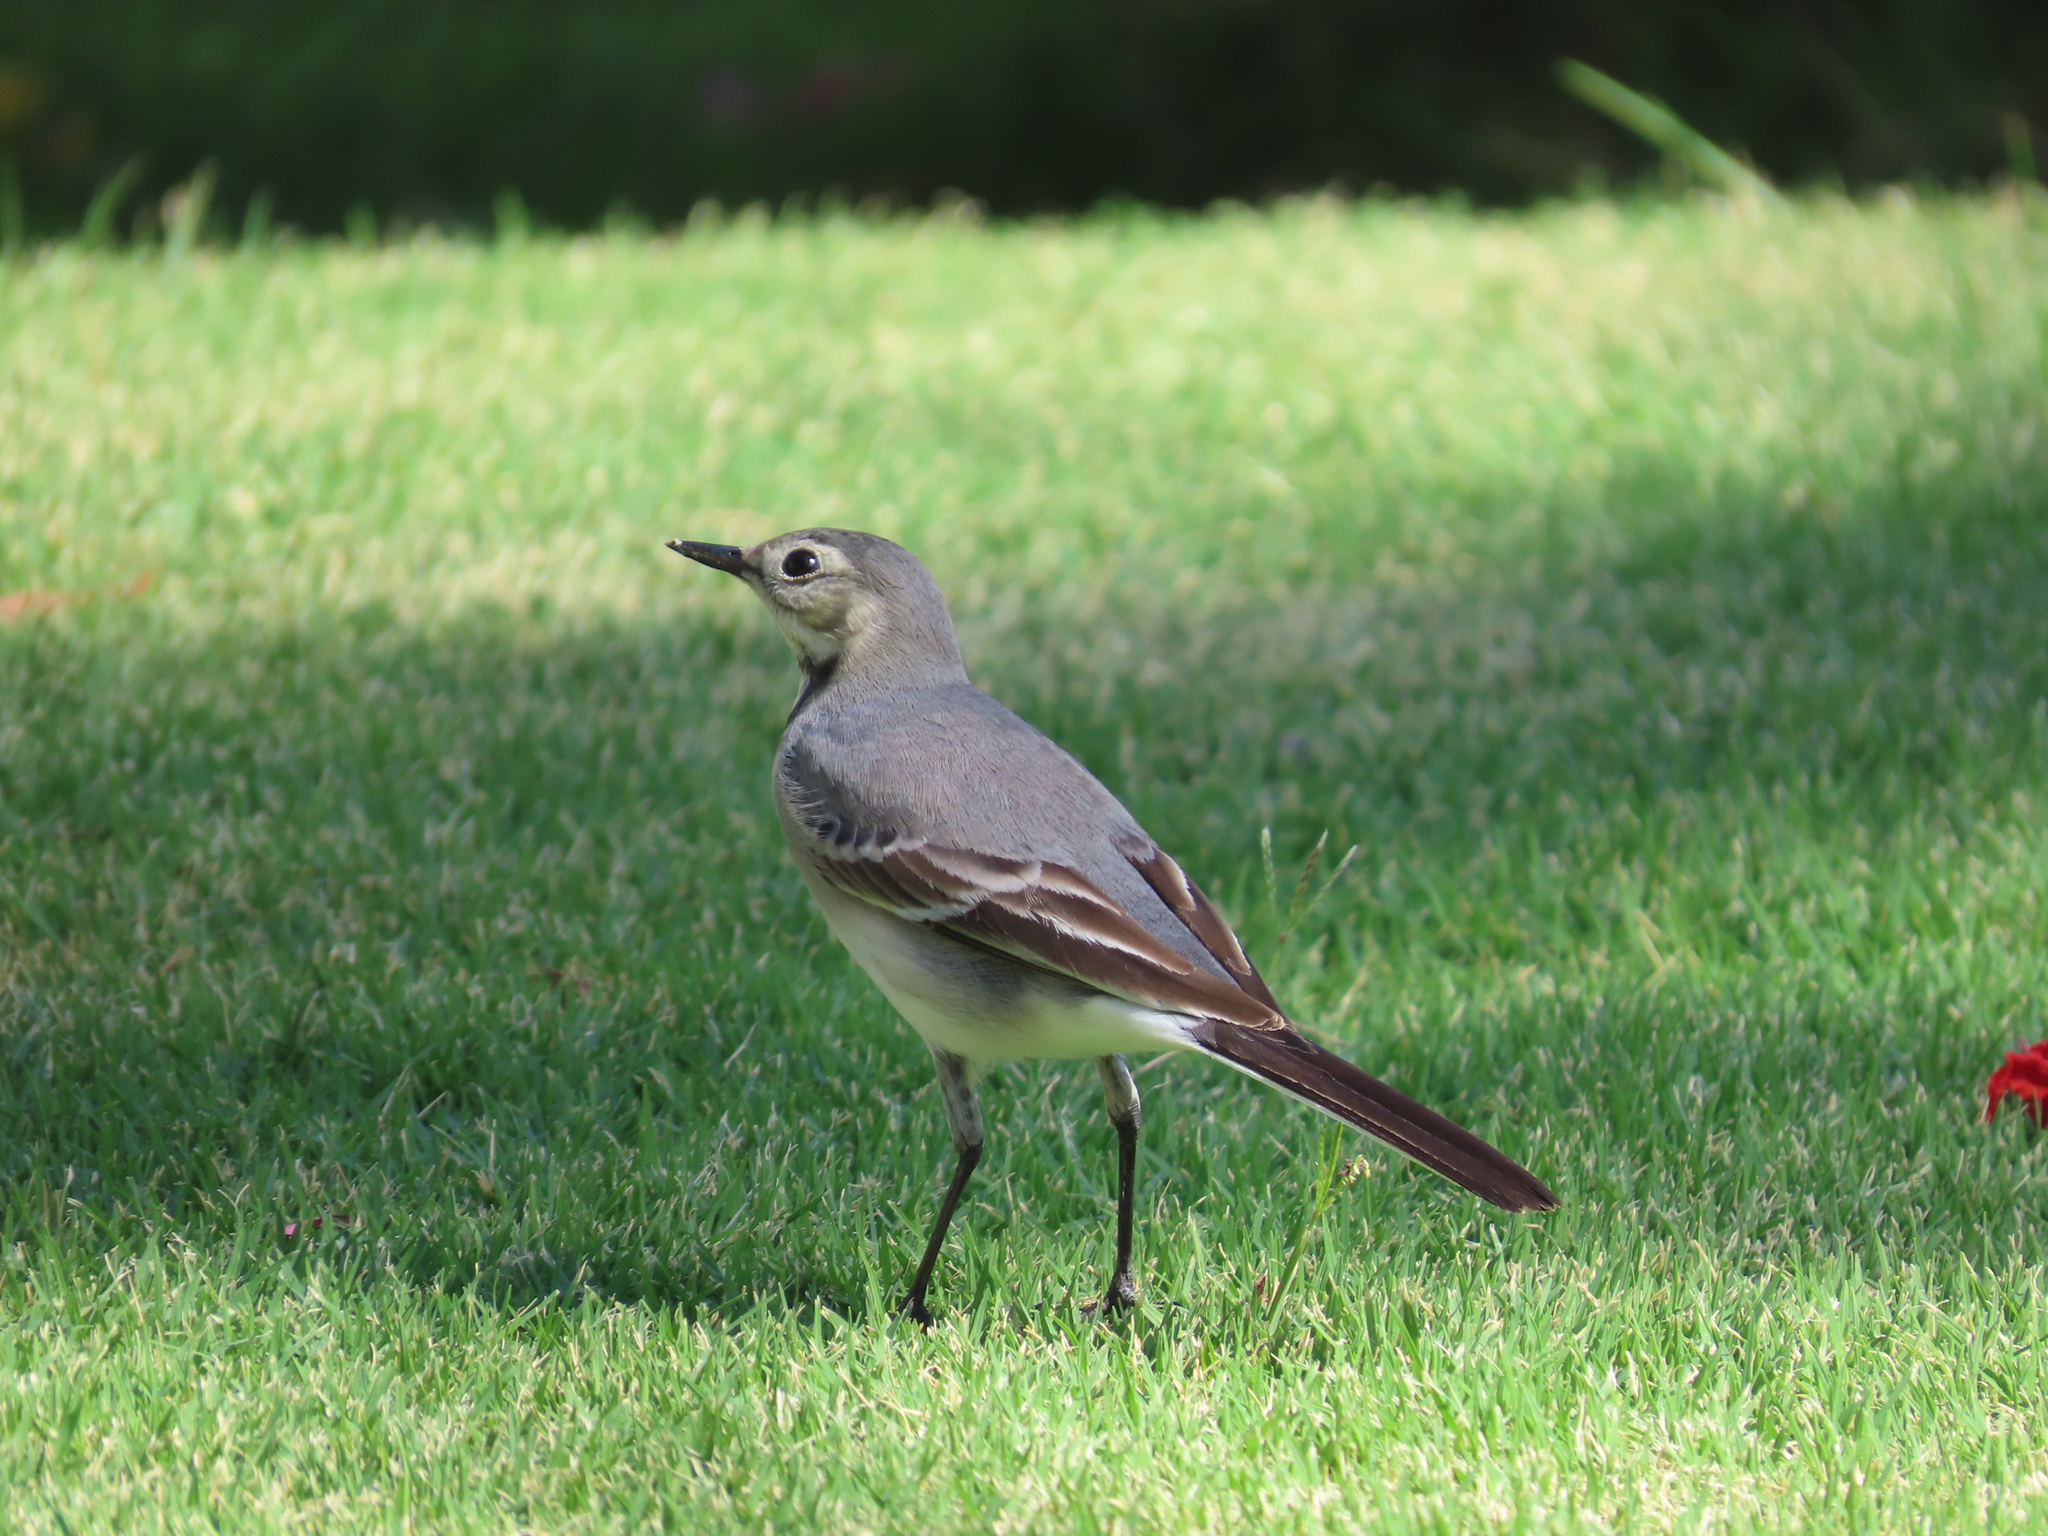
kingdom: Animalia
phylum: Chordata
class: Aves
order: Passeriformes
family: Motacillidae
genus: Motacilla
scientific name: Motacilla alba
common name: White wagtail
